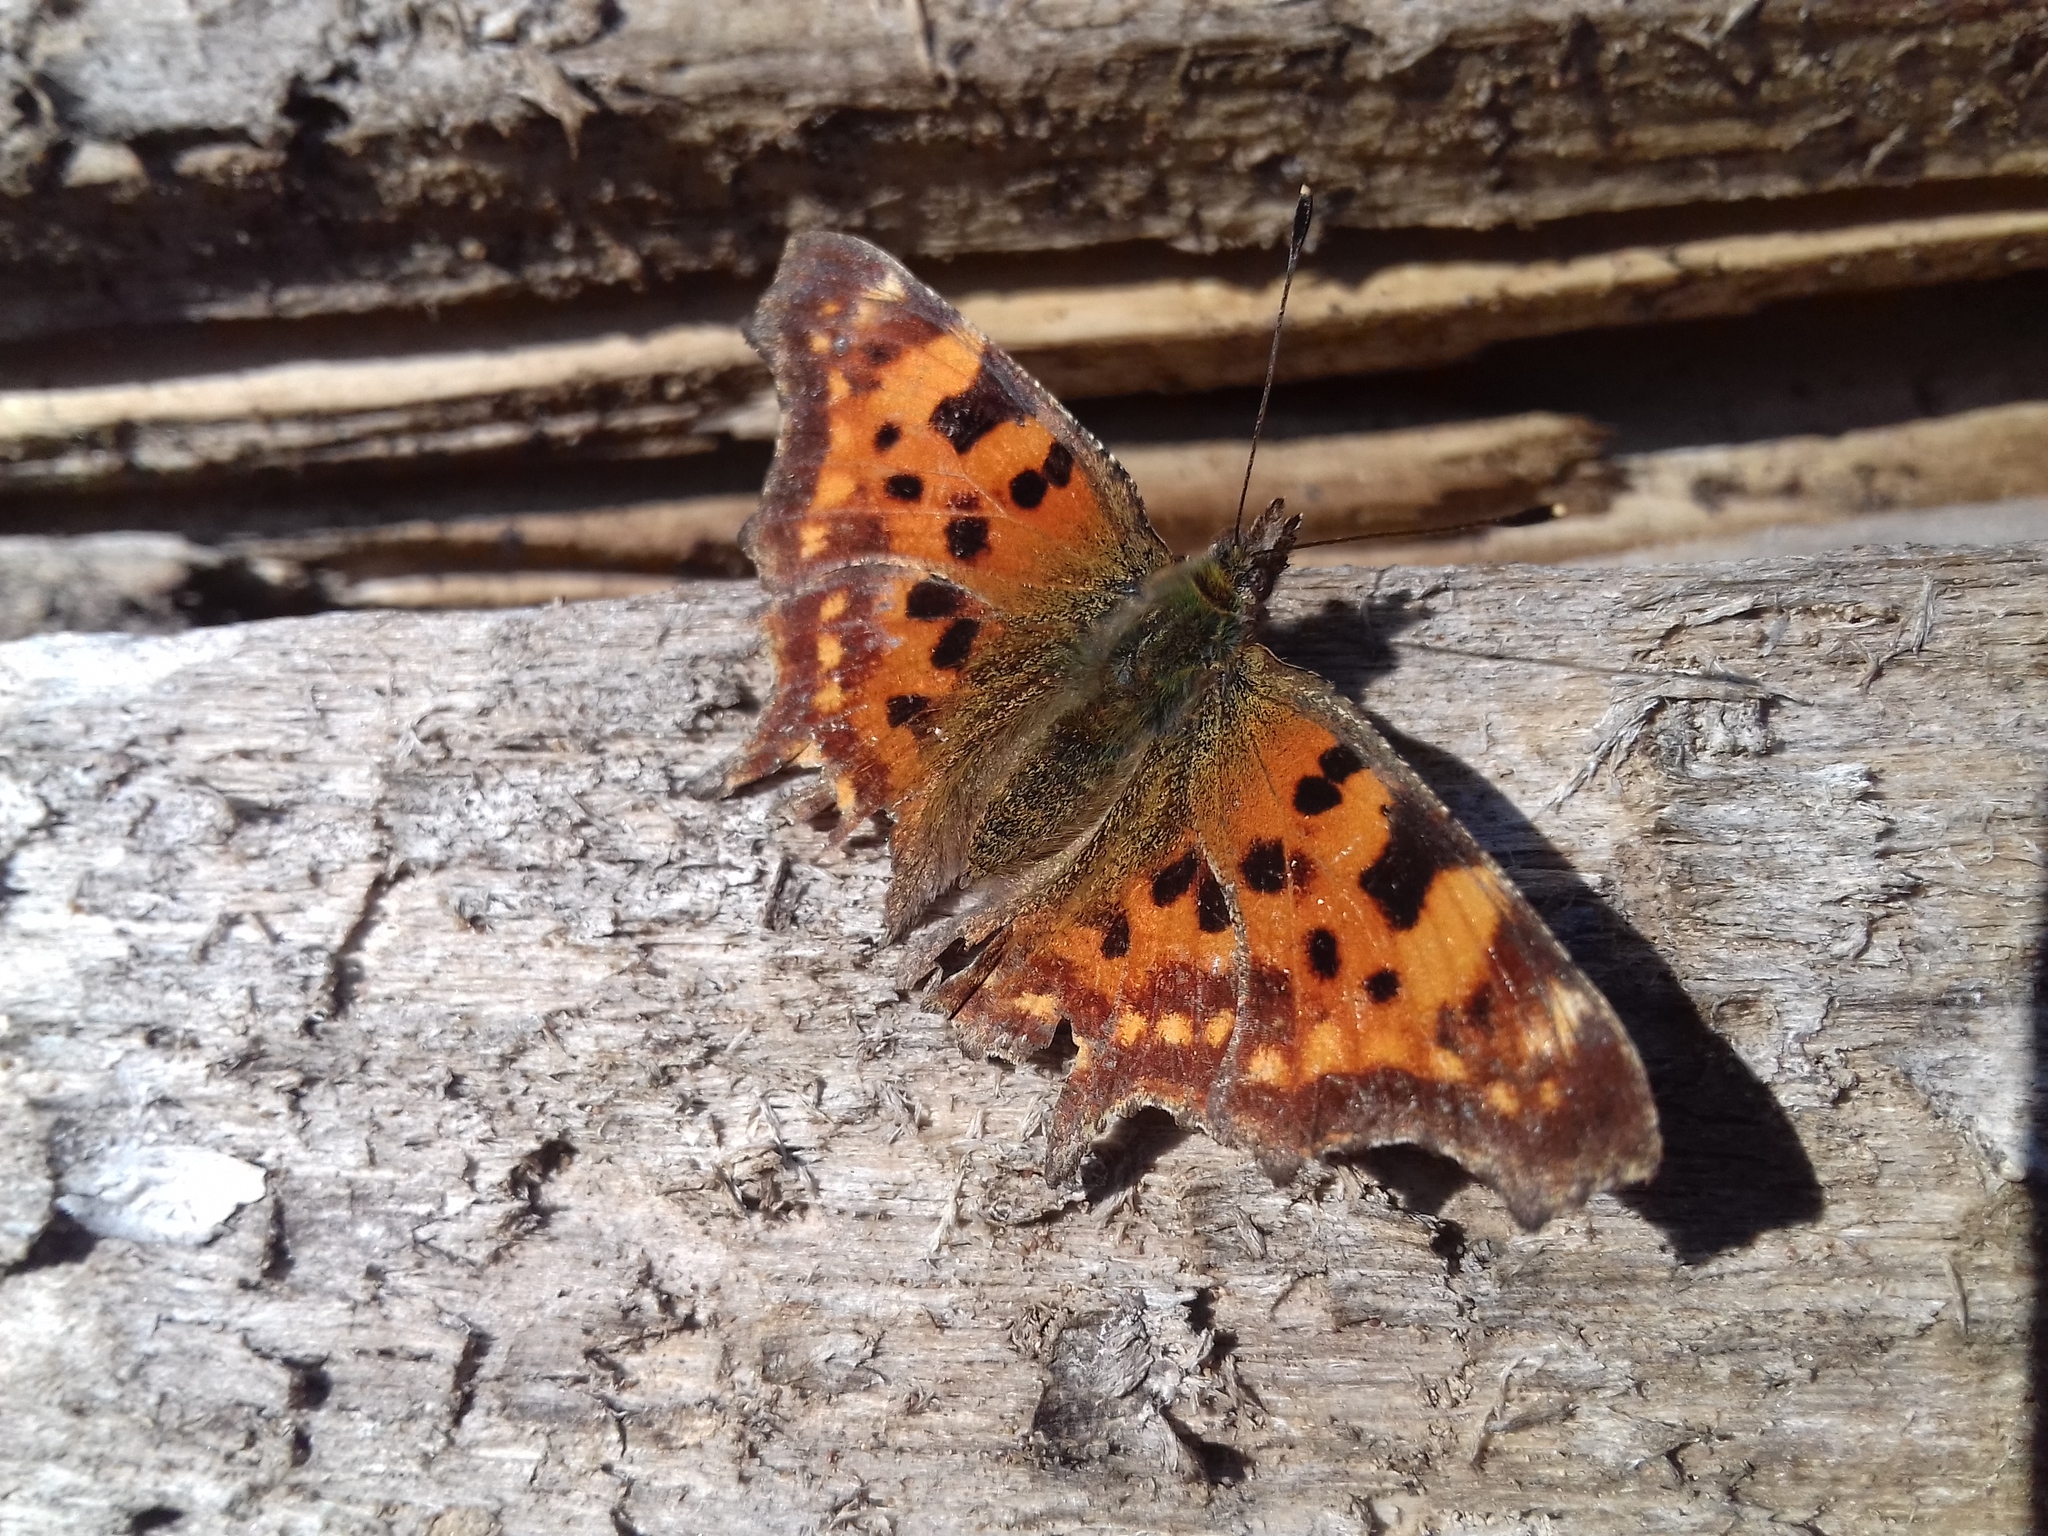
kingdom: Animalia
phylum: Arthropoda
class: Insecta
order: Lepidoptera
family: Nymphalidae
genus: Polygonia
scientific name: Polygonia c-album
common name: Comma
